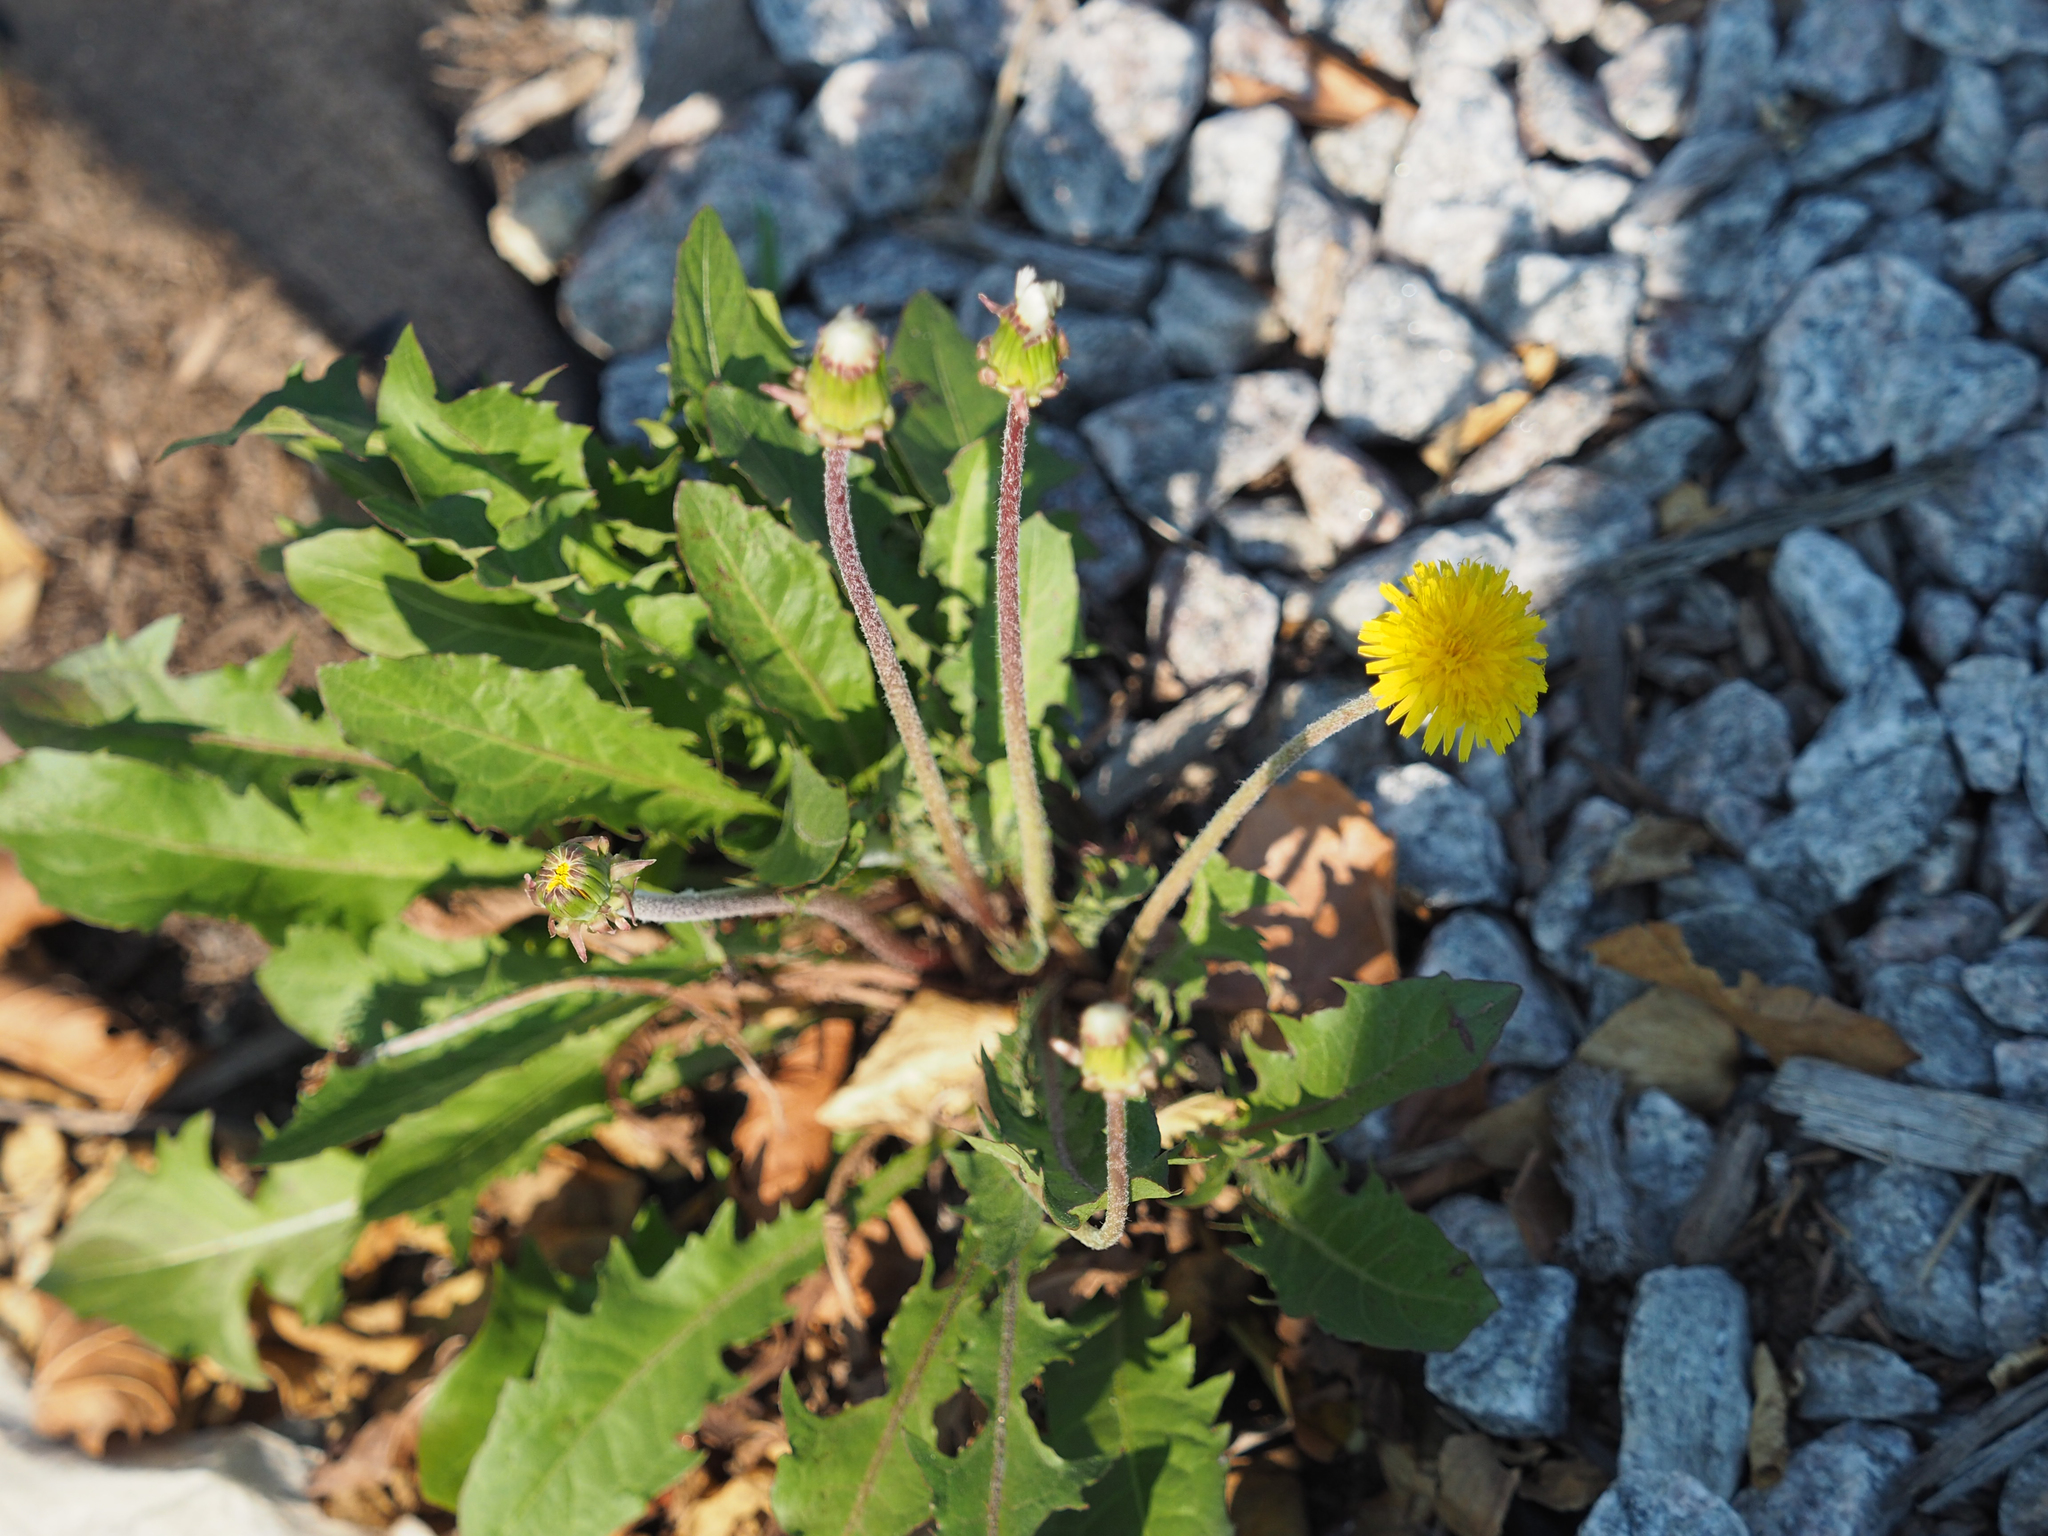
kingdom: Plantae
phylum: Tracheophyta
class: Magnoliopsida
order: Asterales
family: Asteraceae
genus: Taraxacum
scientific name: Taraxacum officinale
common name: Common dandelion
